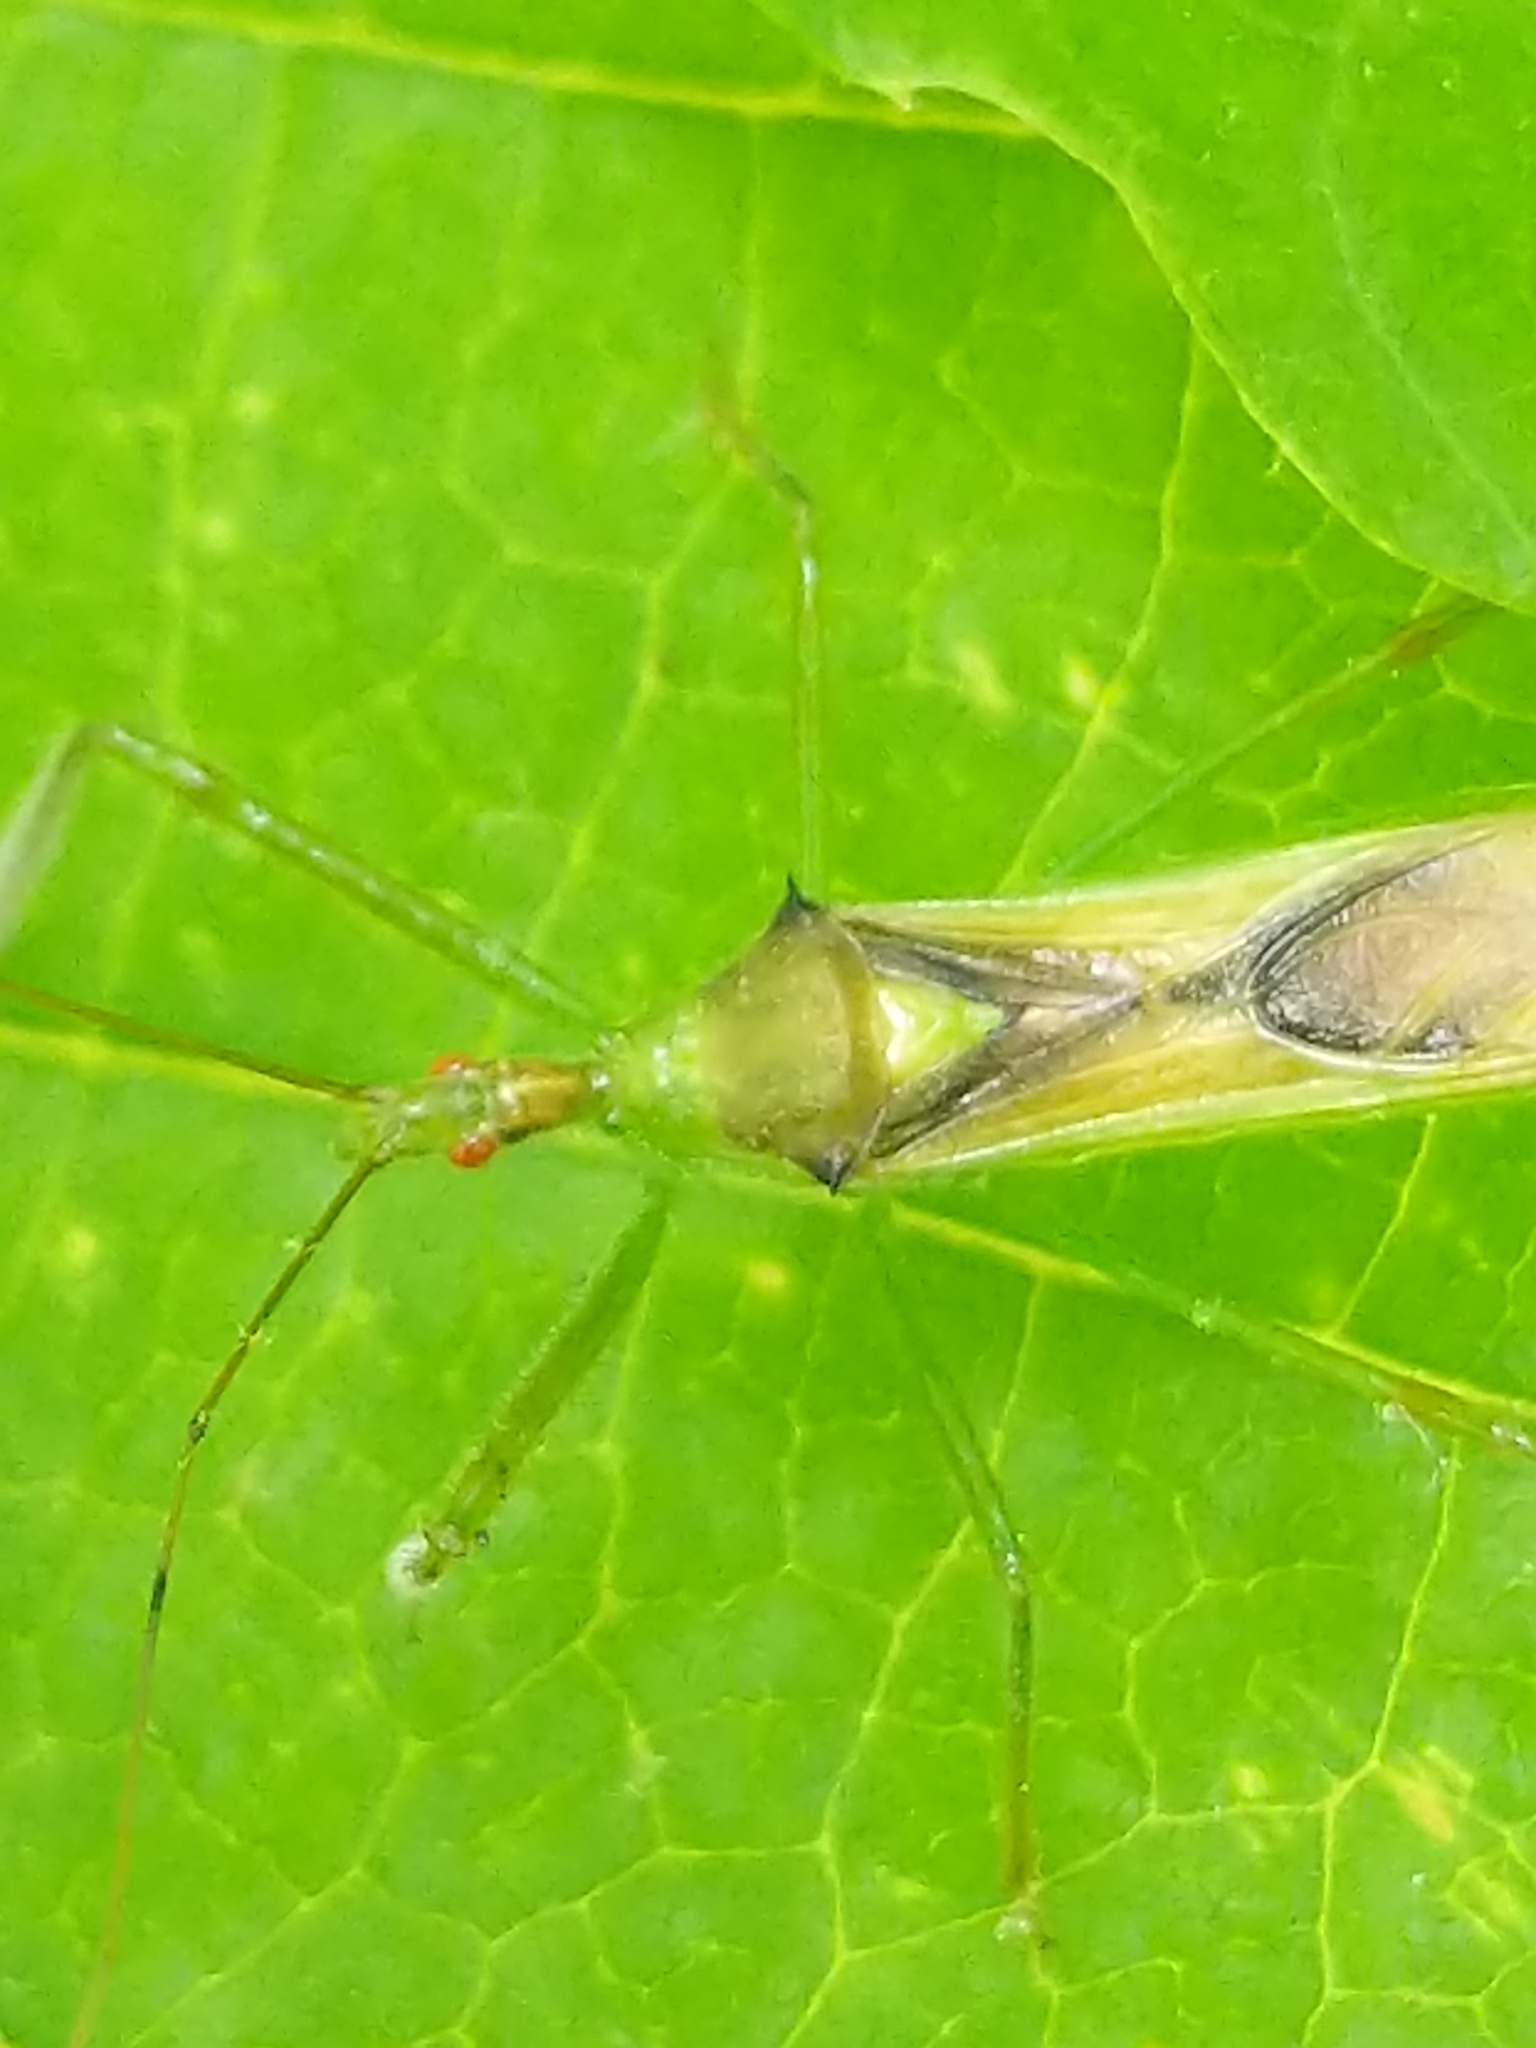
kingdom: Animalia
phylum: Arthropoda
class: Insecta
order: Hemiptera
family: Reduviidae
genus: Zelus
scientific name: Zelus luridus
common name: Pale green assassin bug
